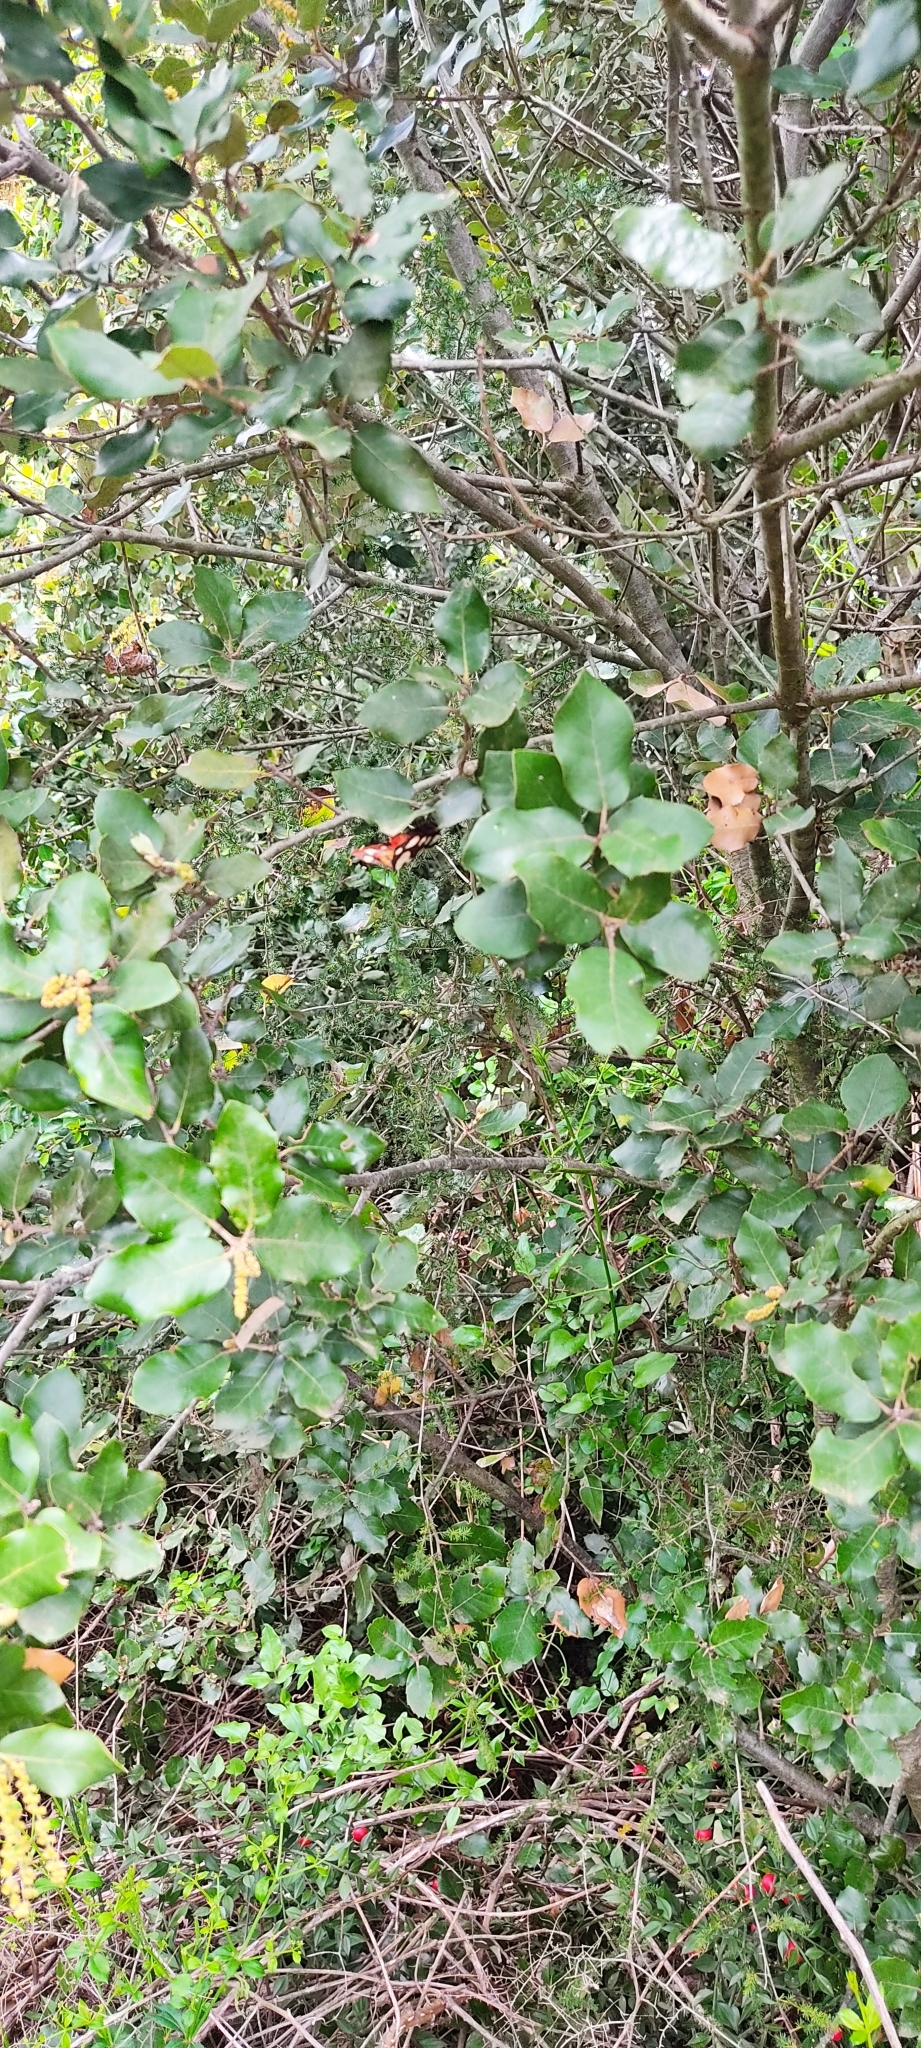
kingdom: Animalia
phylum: Arthropoda
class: Insecta
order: Lepidoptera
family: Erebidae
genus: Epicallia
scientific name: Epicallia villica
